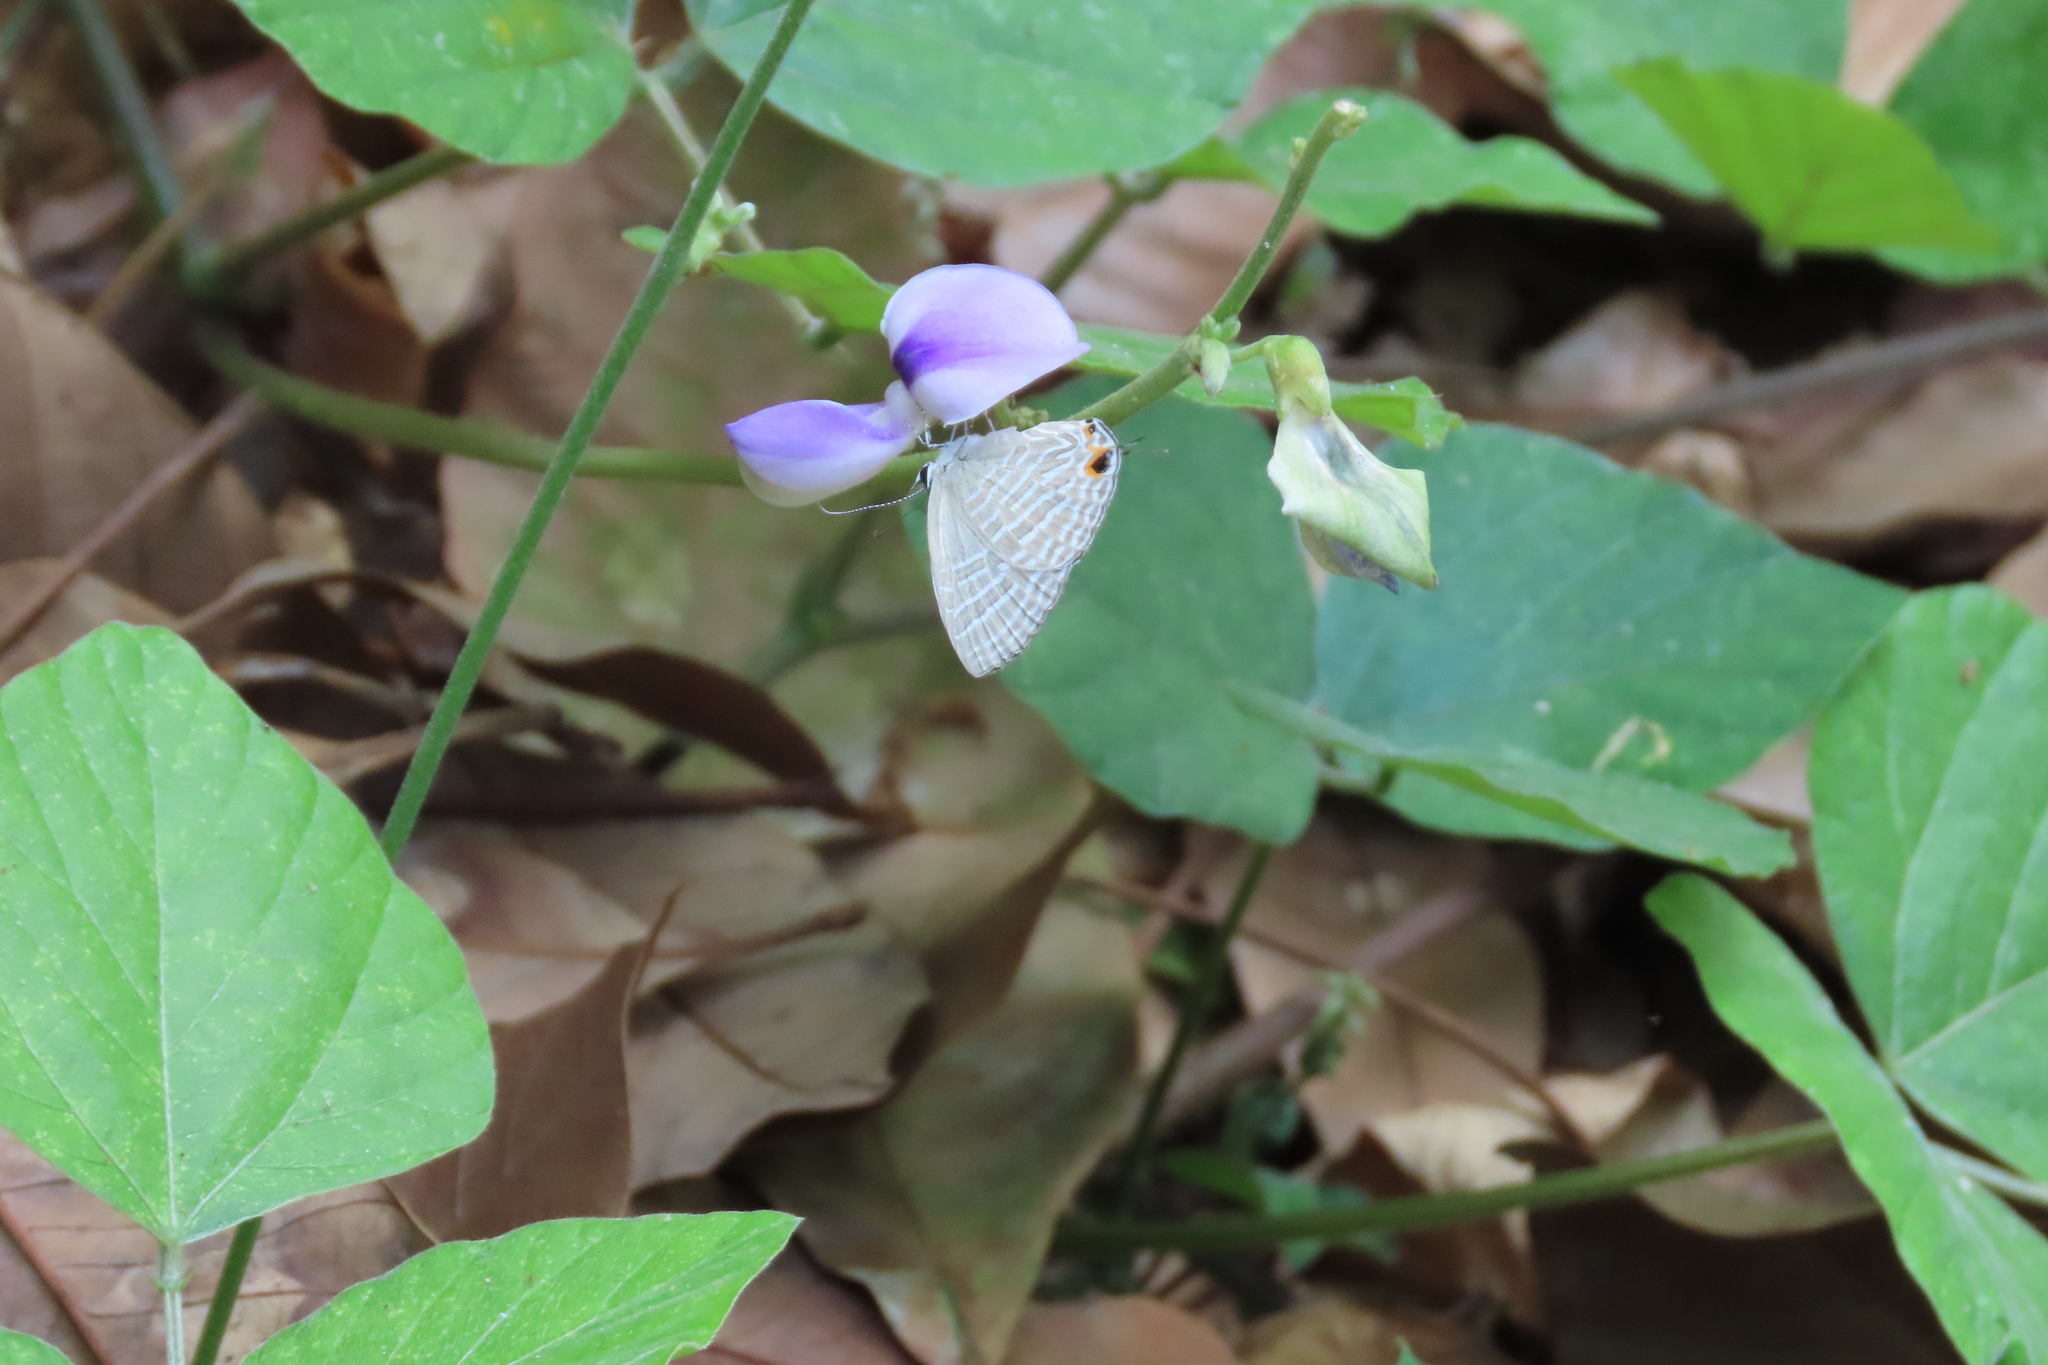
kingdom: Animalia
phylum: Arthropoda
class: Insecta
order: Lepidoptera
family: Lycaenidae
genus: Jamides
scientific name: Jamides celeno
